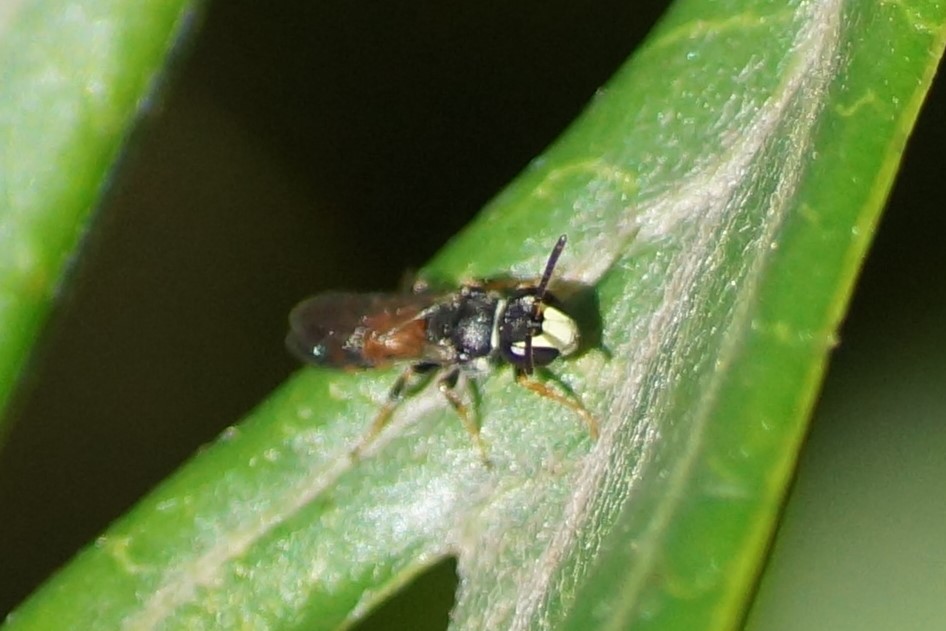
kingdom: Animalia
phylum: Arthropoda
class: Insecta
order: Hymenoptera
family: Colletidae
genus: Hylaeus
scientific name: Hylaeus littleri
